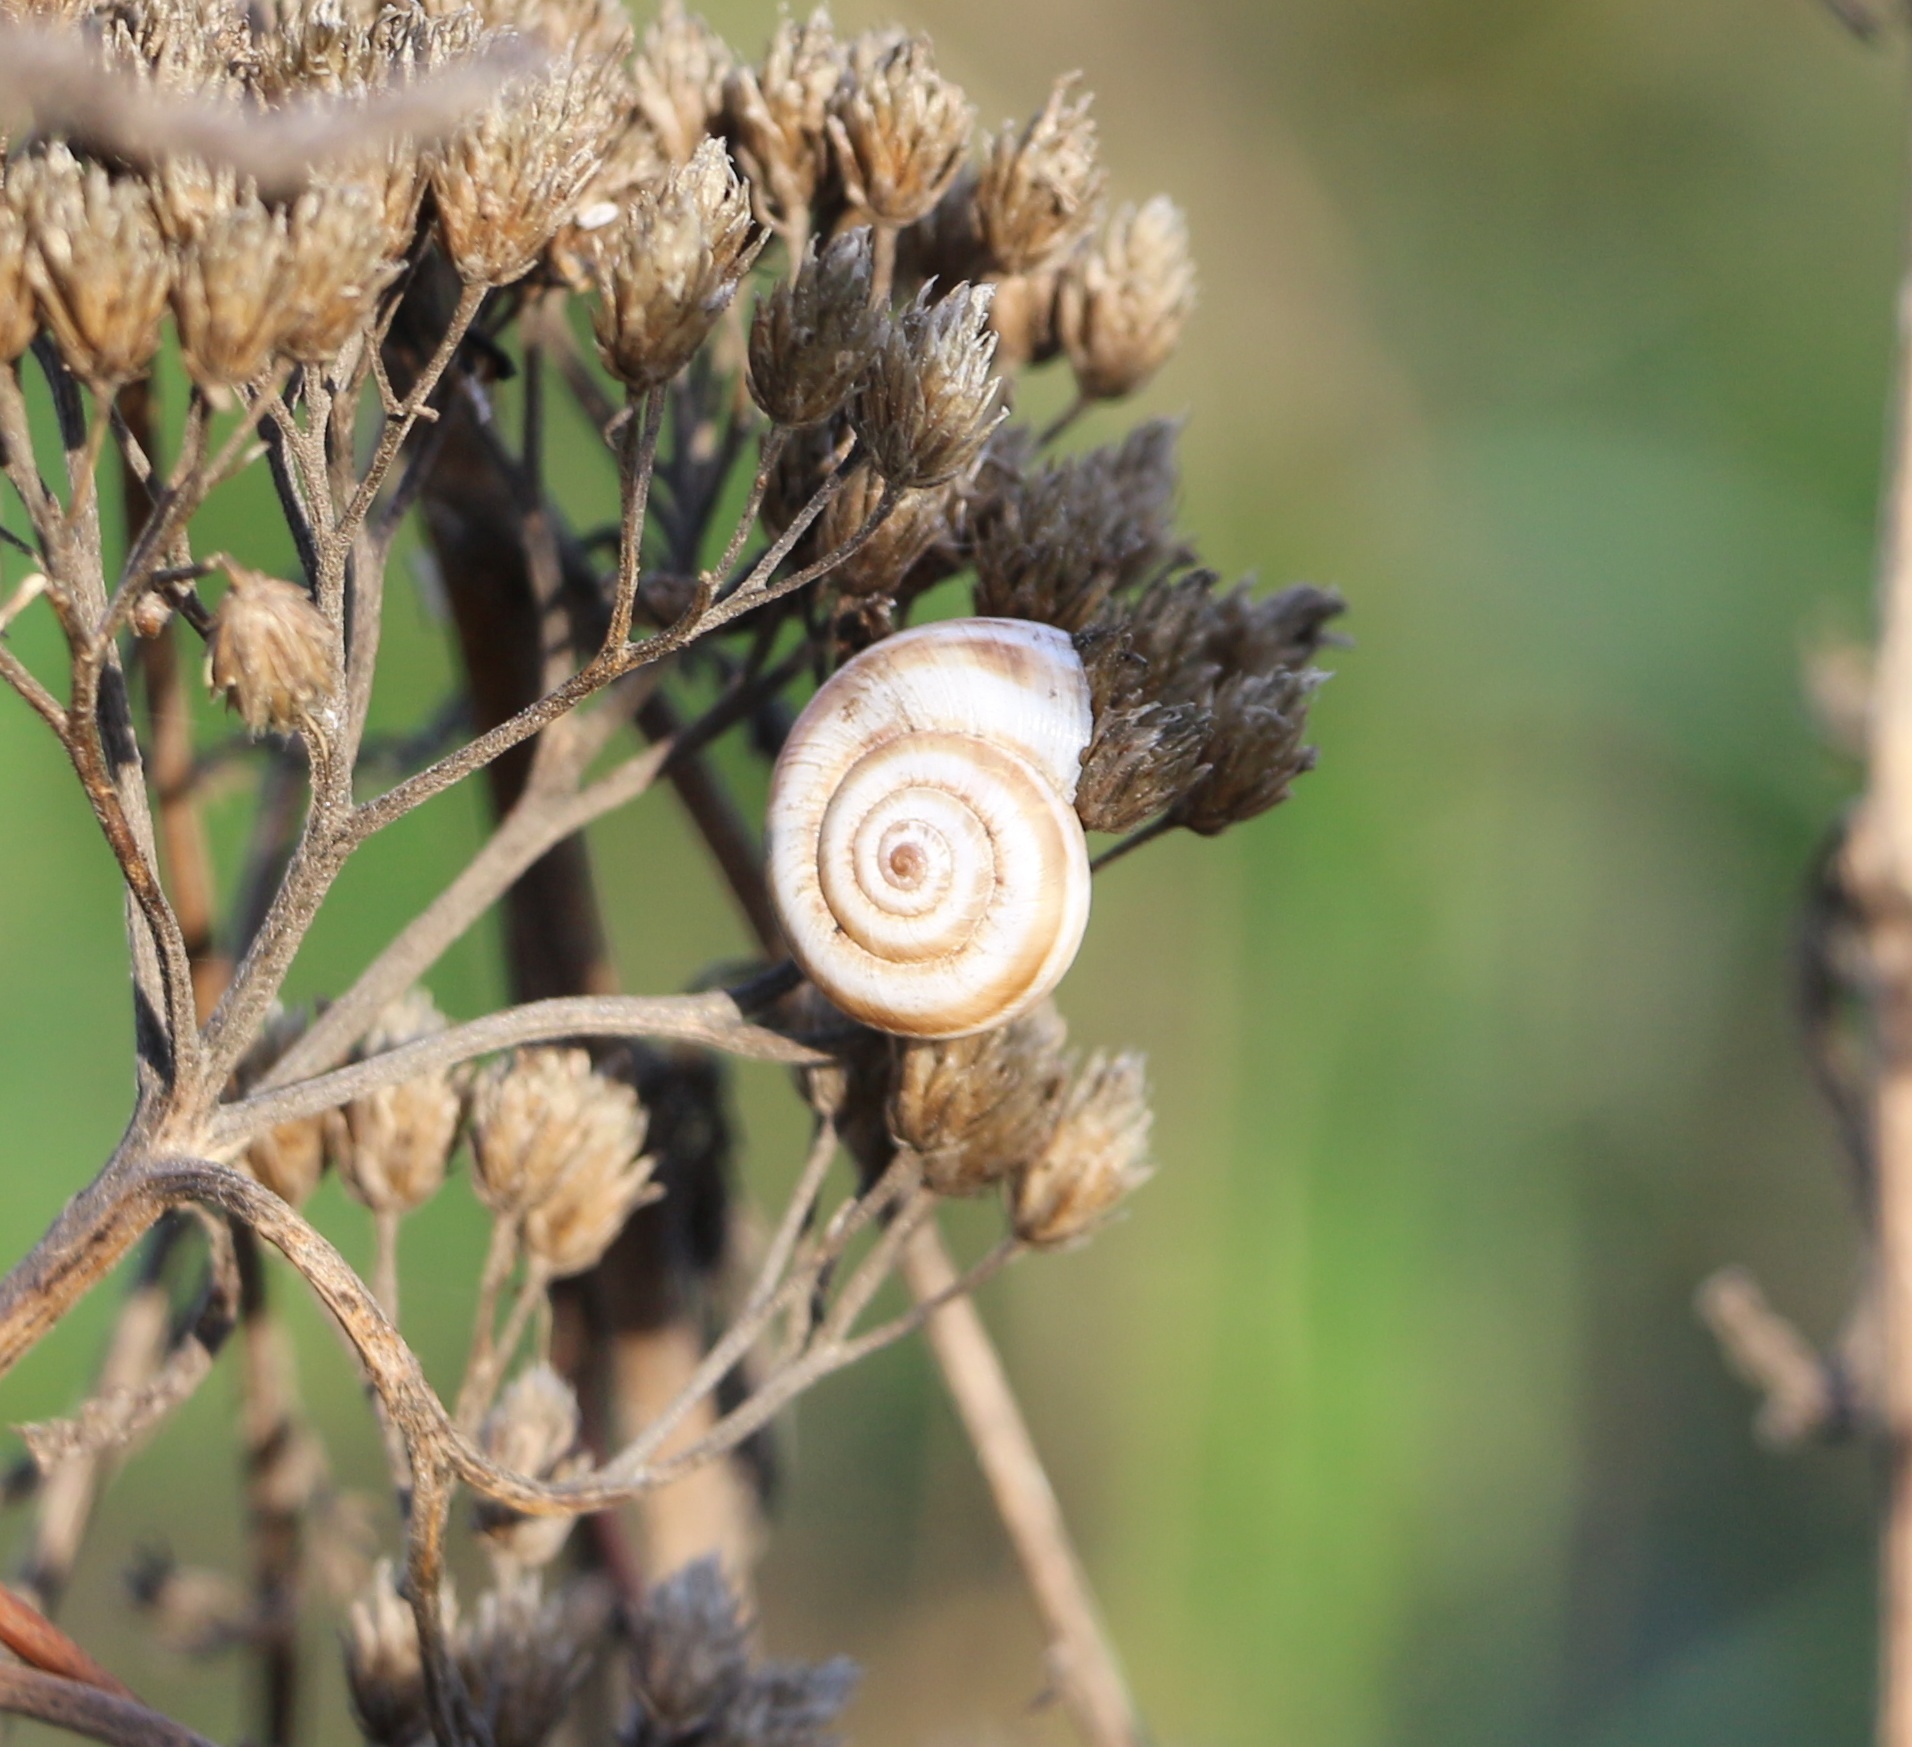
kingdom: Animalia
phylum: Mollusca
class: Gastropoda
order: Stylommatophora
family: Geomitridae
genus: Xeropicta
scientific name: Xeropicta derbentina
